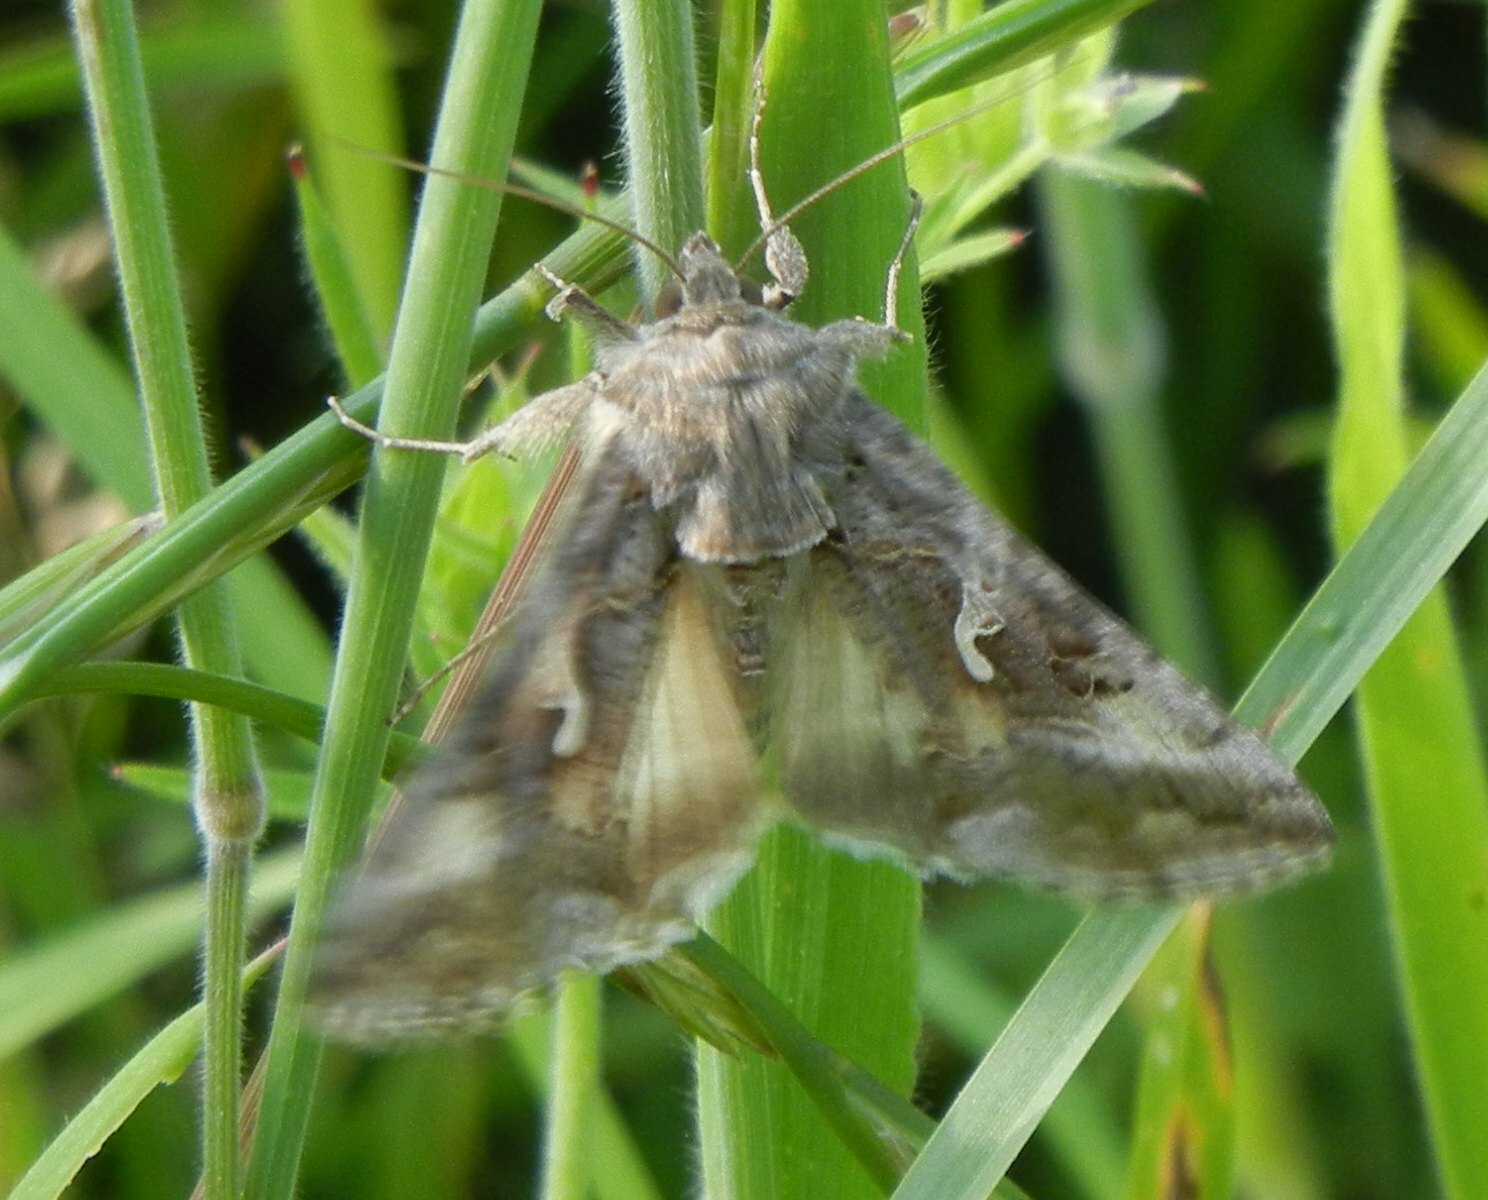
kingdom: Animalia
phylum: Arthropoda
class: Insecta
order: Lepidoptera
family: Noctuidae
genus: Autographa
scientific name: Autographa gamma
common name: Silver y
